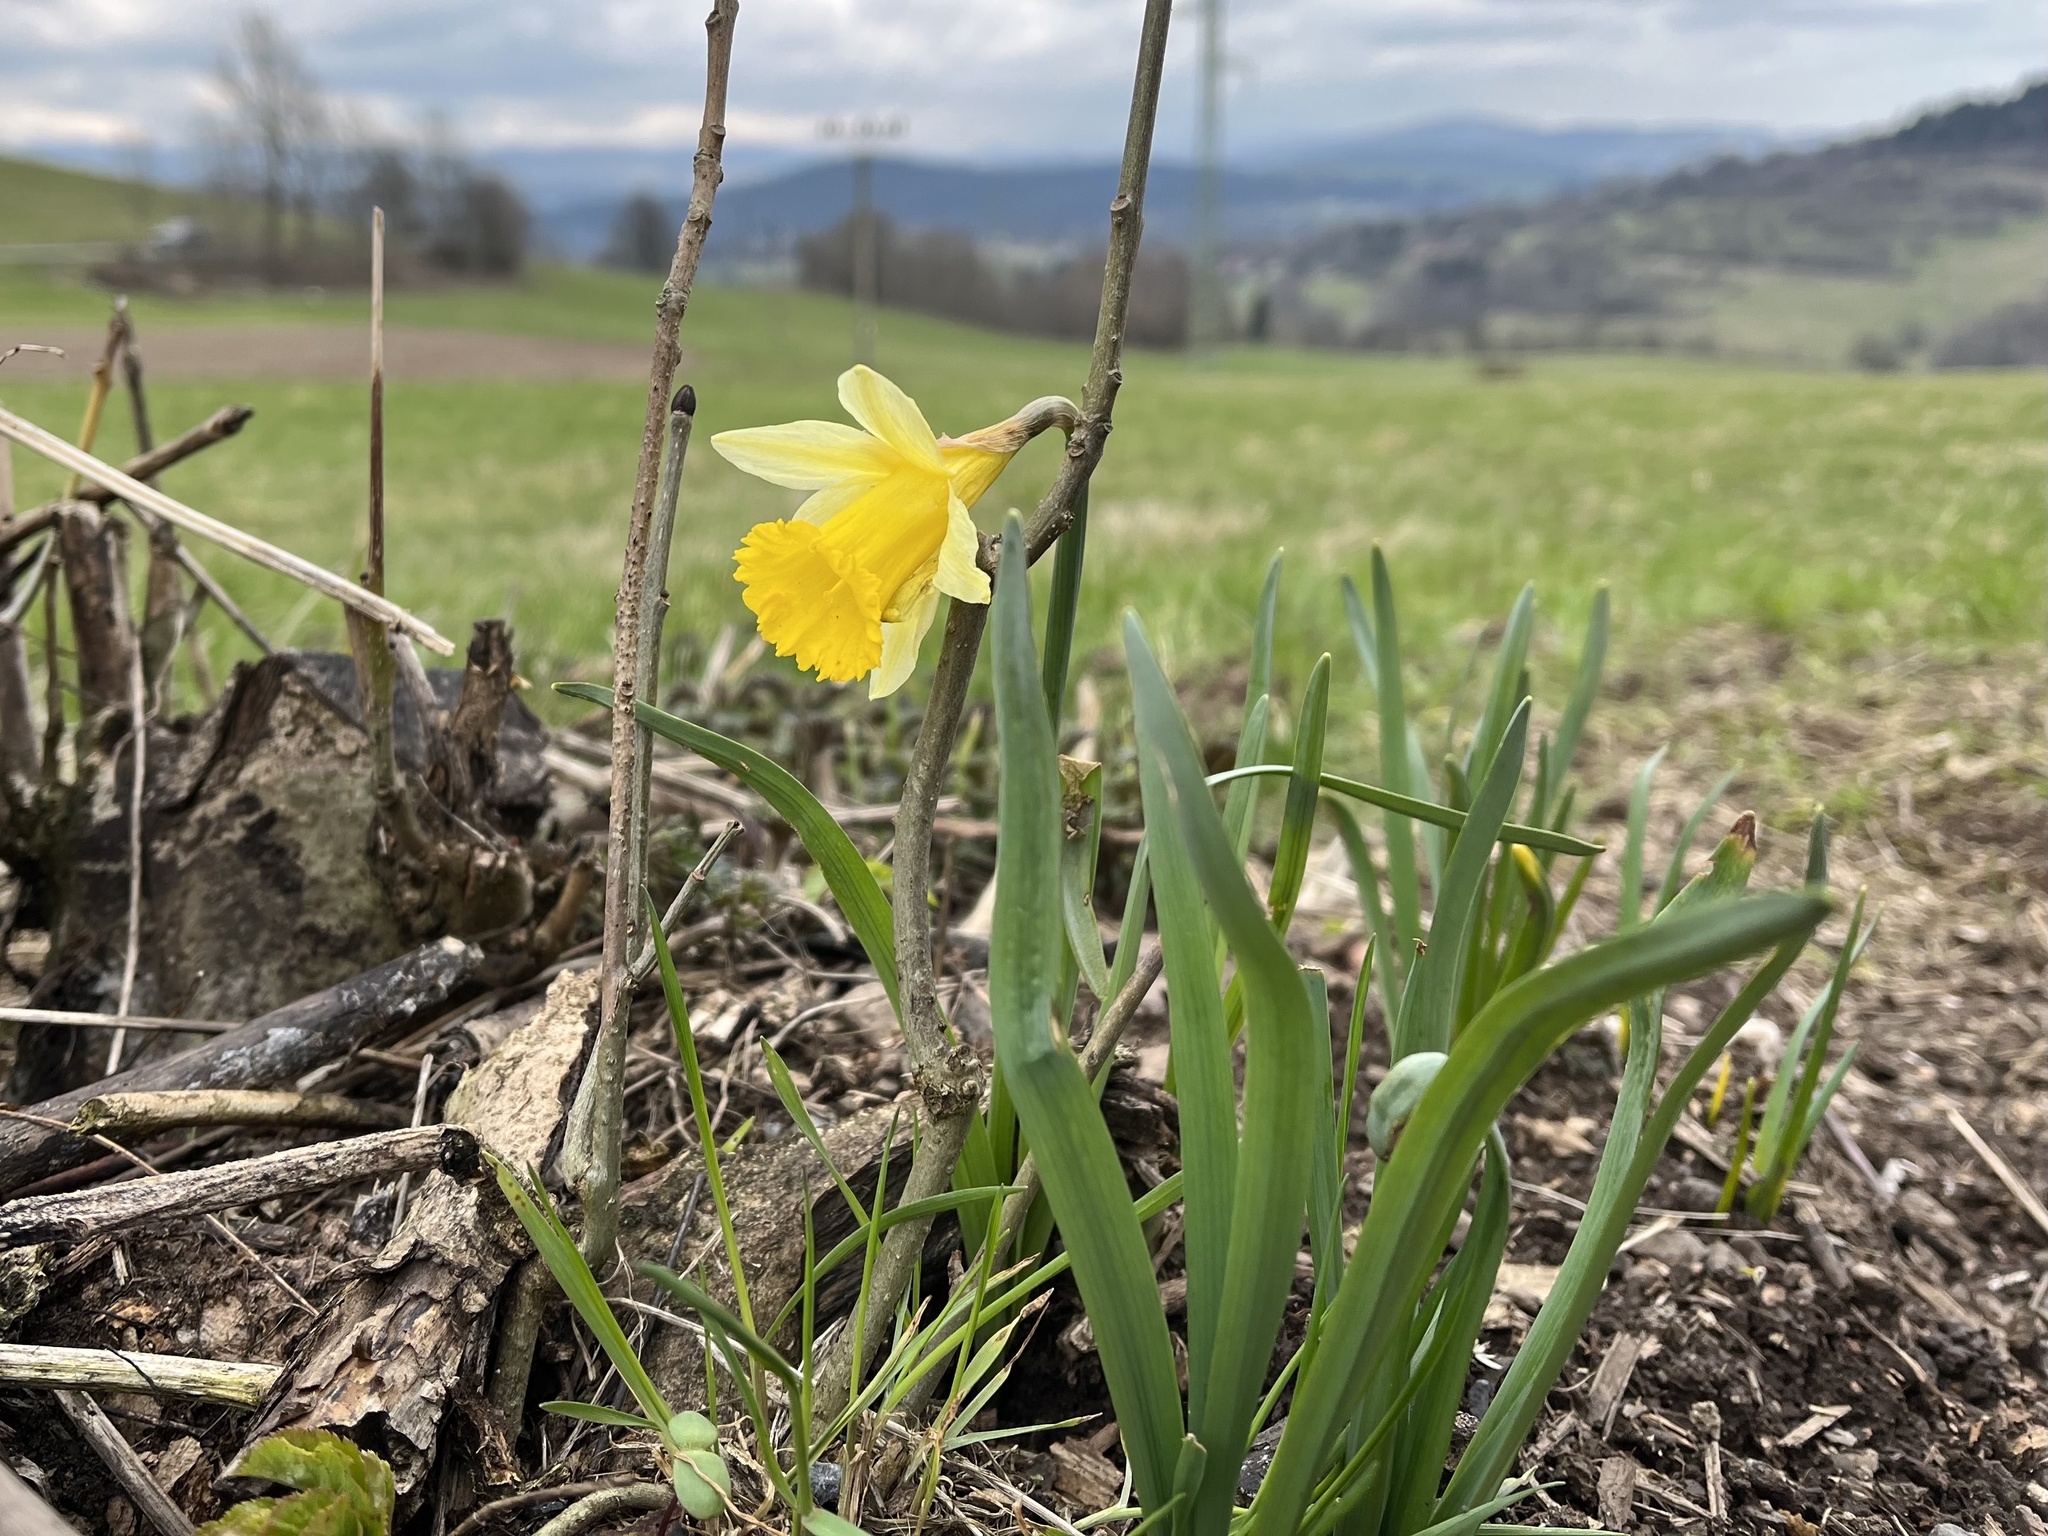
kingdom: Plantae
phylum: Tracheophyta
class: Liliopsida
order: Asparagales
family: Amaryllidaceae
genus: Narcissus
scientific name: Narcissus pseudonarcissus
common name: Daffodil
